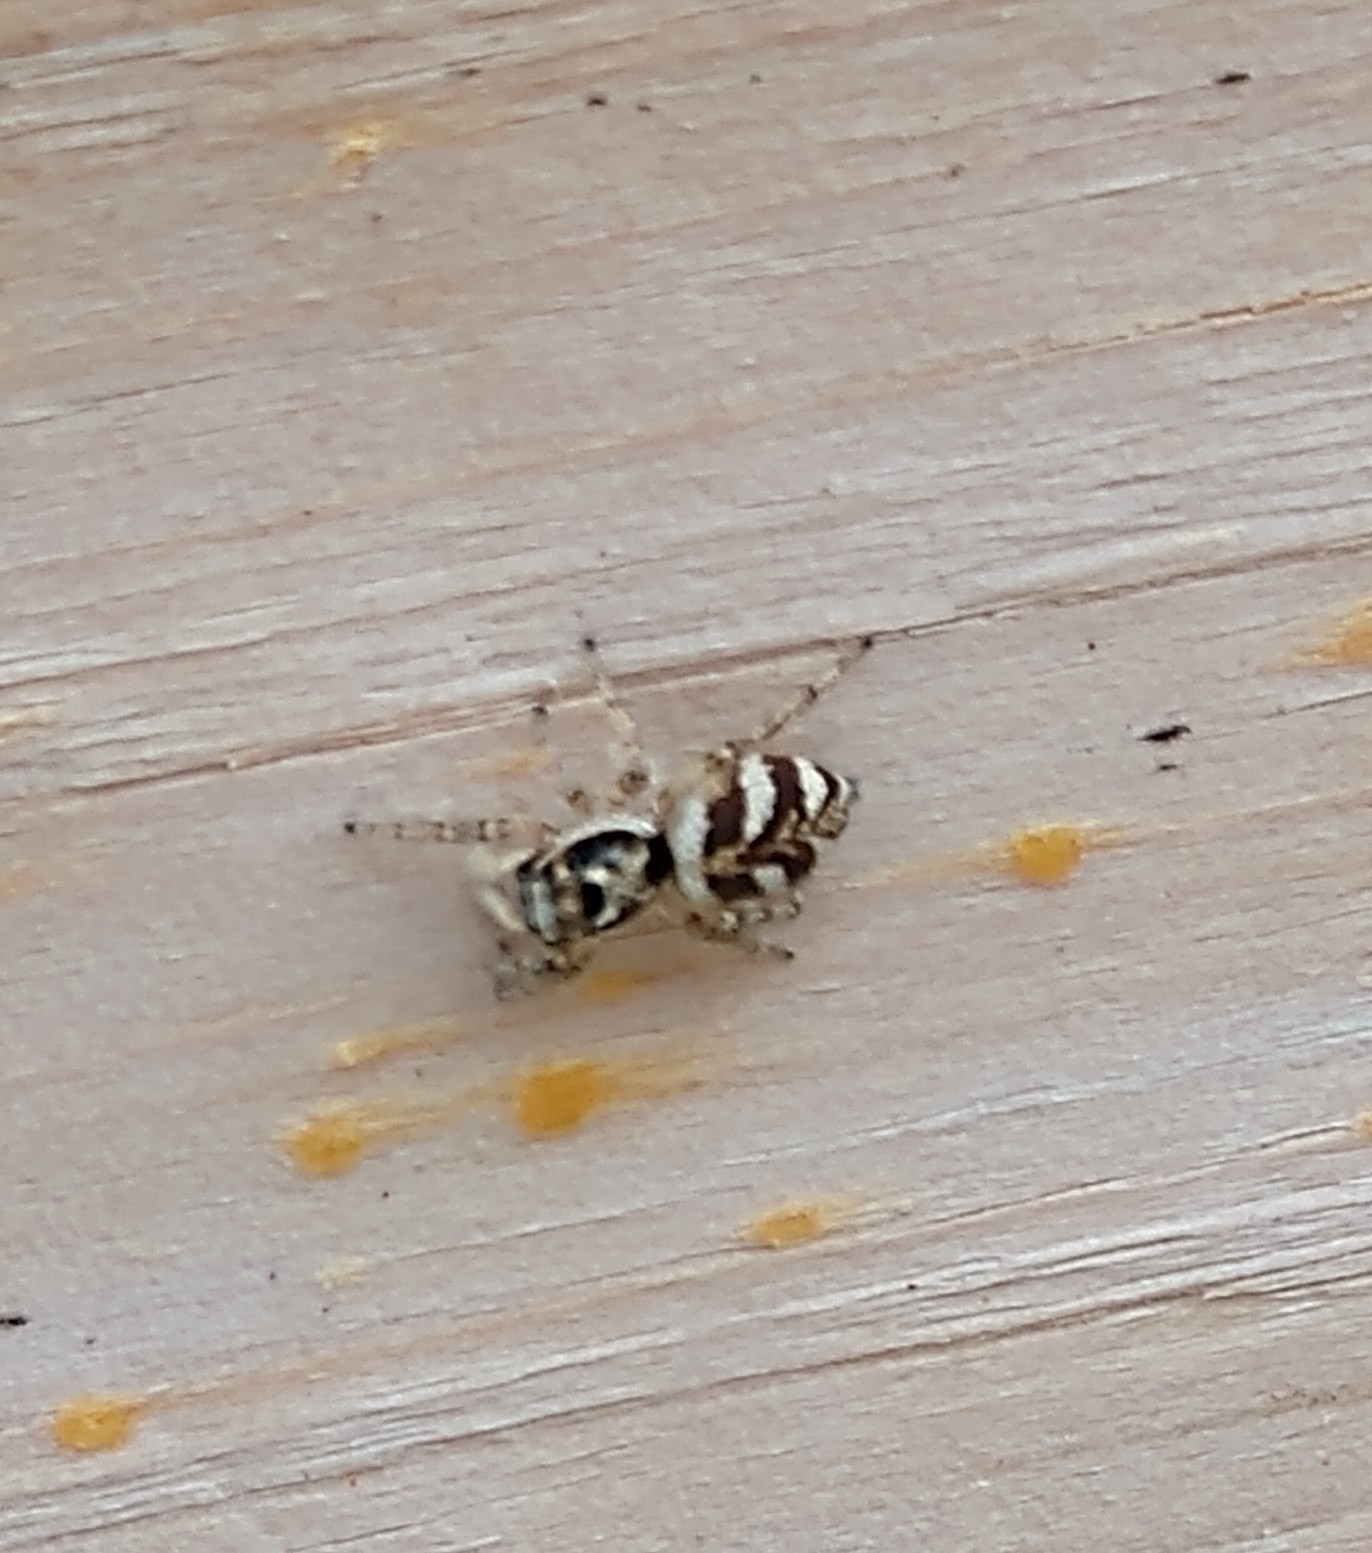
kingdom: Animalia
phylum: Arthropoda
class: Arachnida
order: Araneae
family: Salticidae
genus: Salticus
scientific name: Salticus scenicus
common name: Zebra jumper
